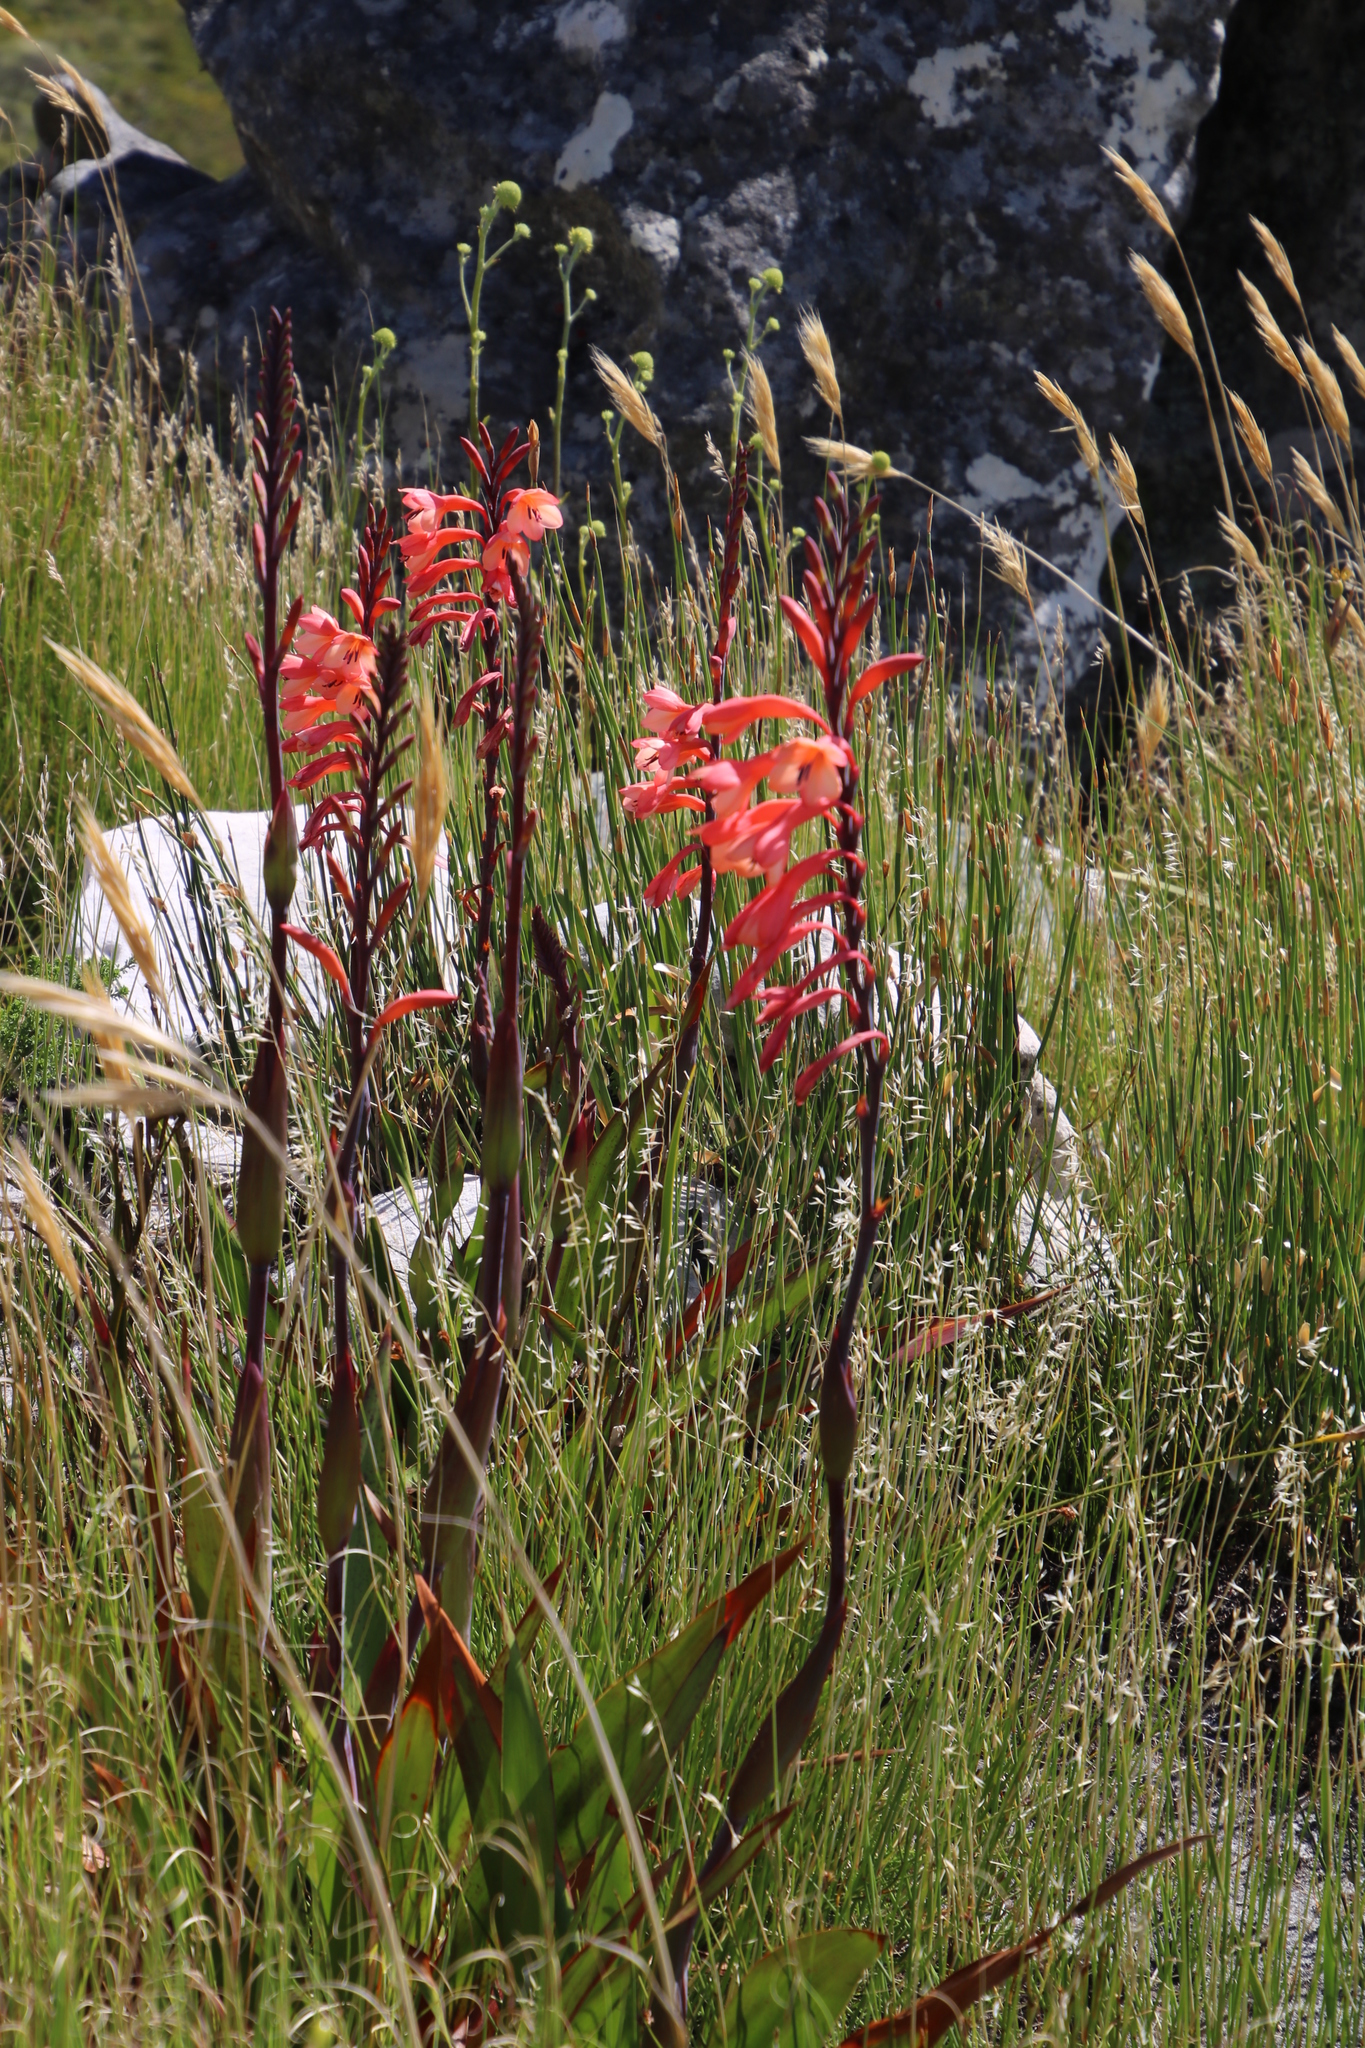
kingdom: Plantae
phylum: Tracheophyta
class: Liliopsida
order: Asparagales
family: Iridaceae
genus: Watsonia
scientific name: Watsonia tabularis
